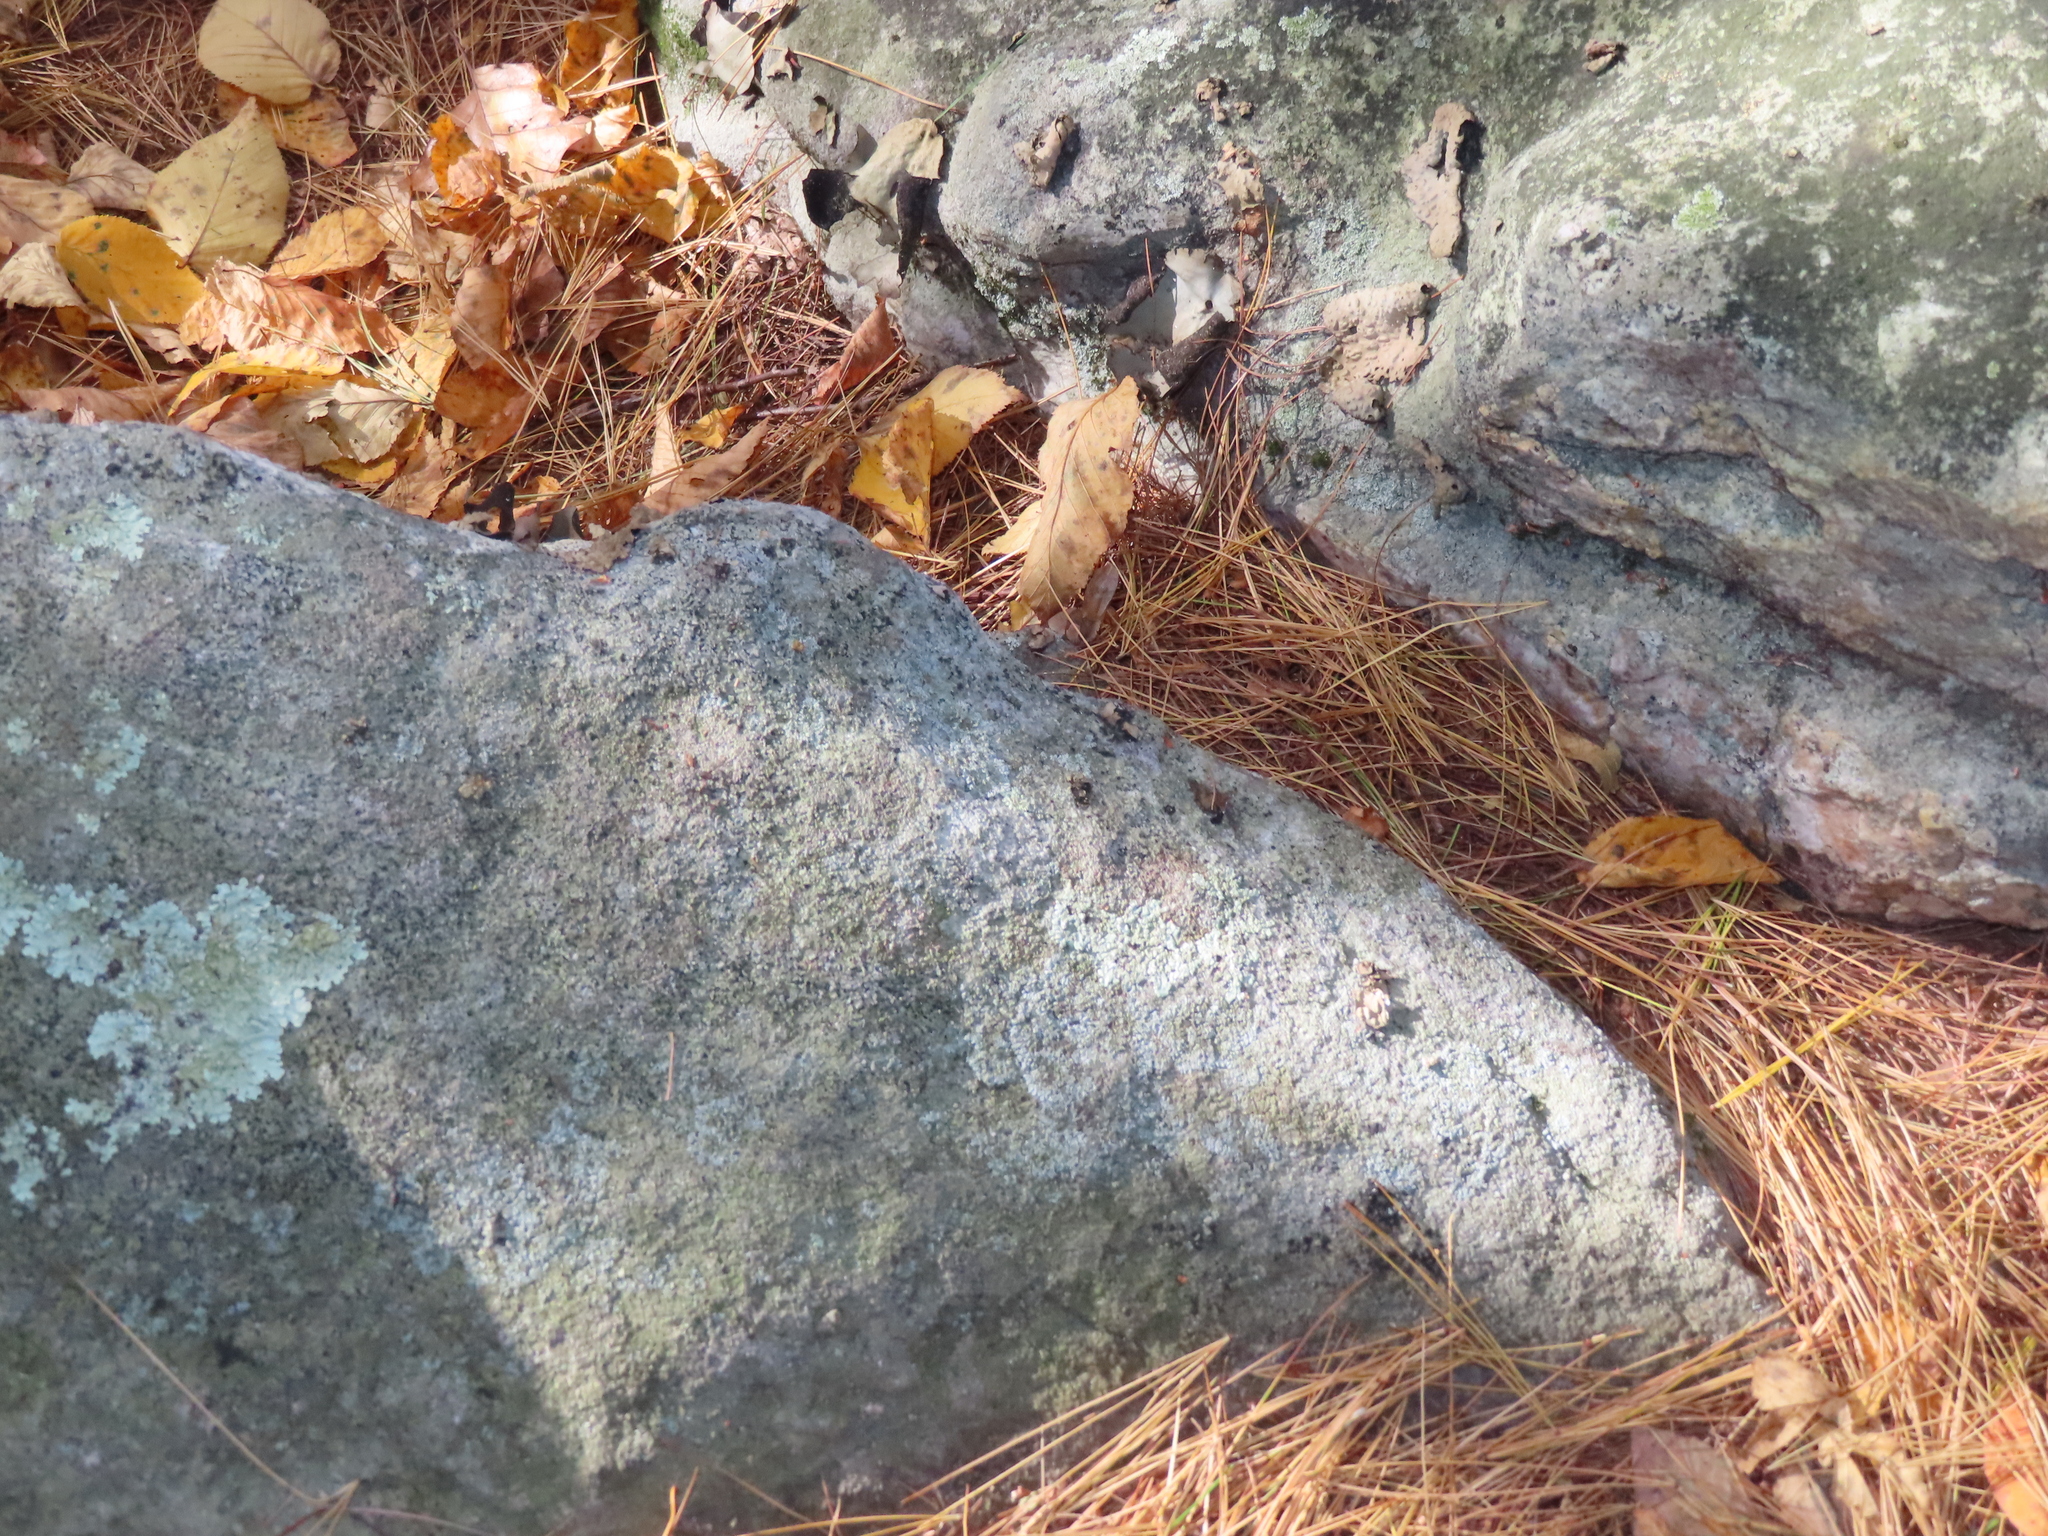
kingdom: Animalia
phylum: Chordata
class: Squamata
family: Viperidae
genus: Agkistrodon
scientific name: Agkistrodon contortrix
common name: Northern copperhead
